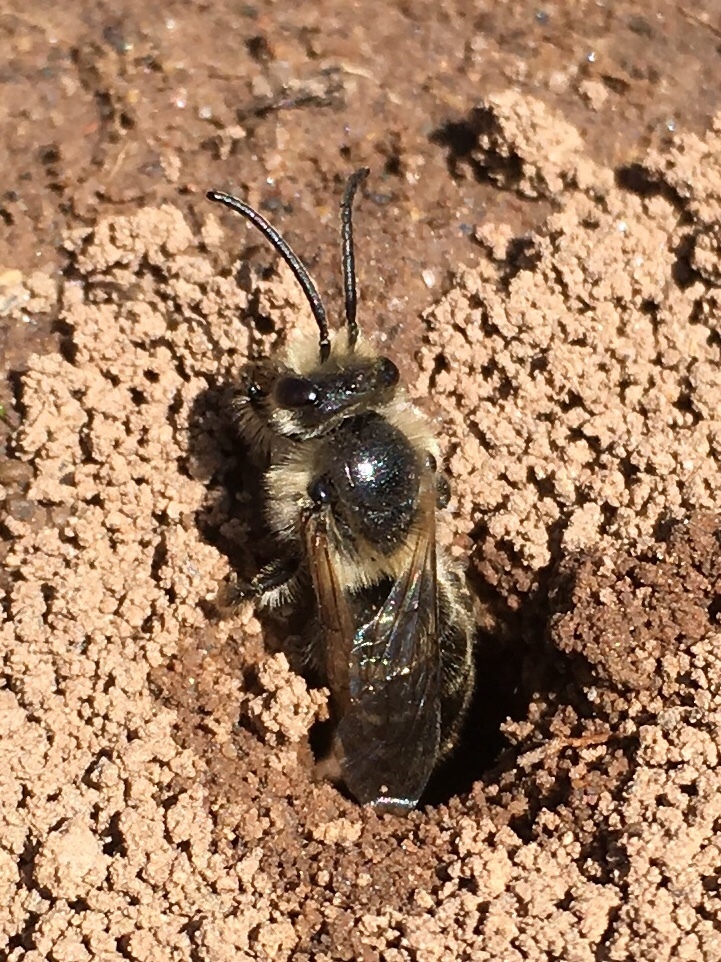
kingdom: Animalia
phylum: Arthropoda
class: Insecta
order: Hymenoptera
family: Colletidae
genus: Colletes
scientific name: Colletes inaequalis
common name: Unequal cellophane bee
